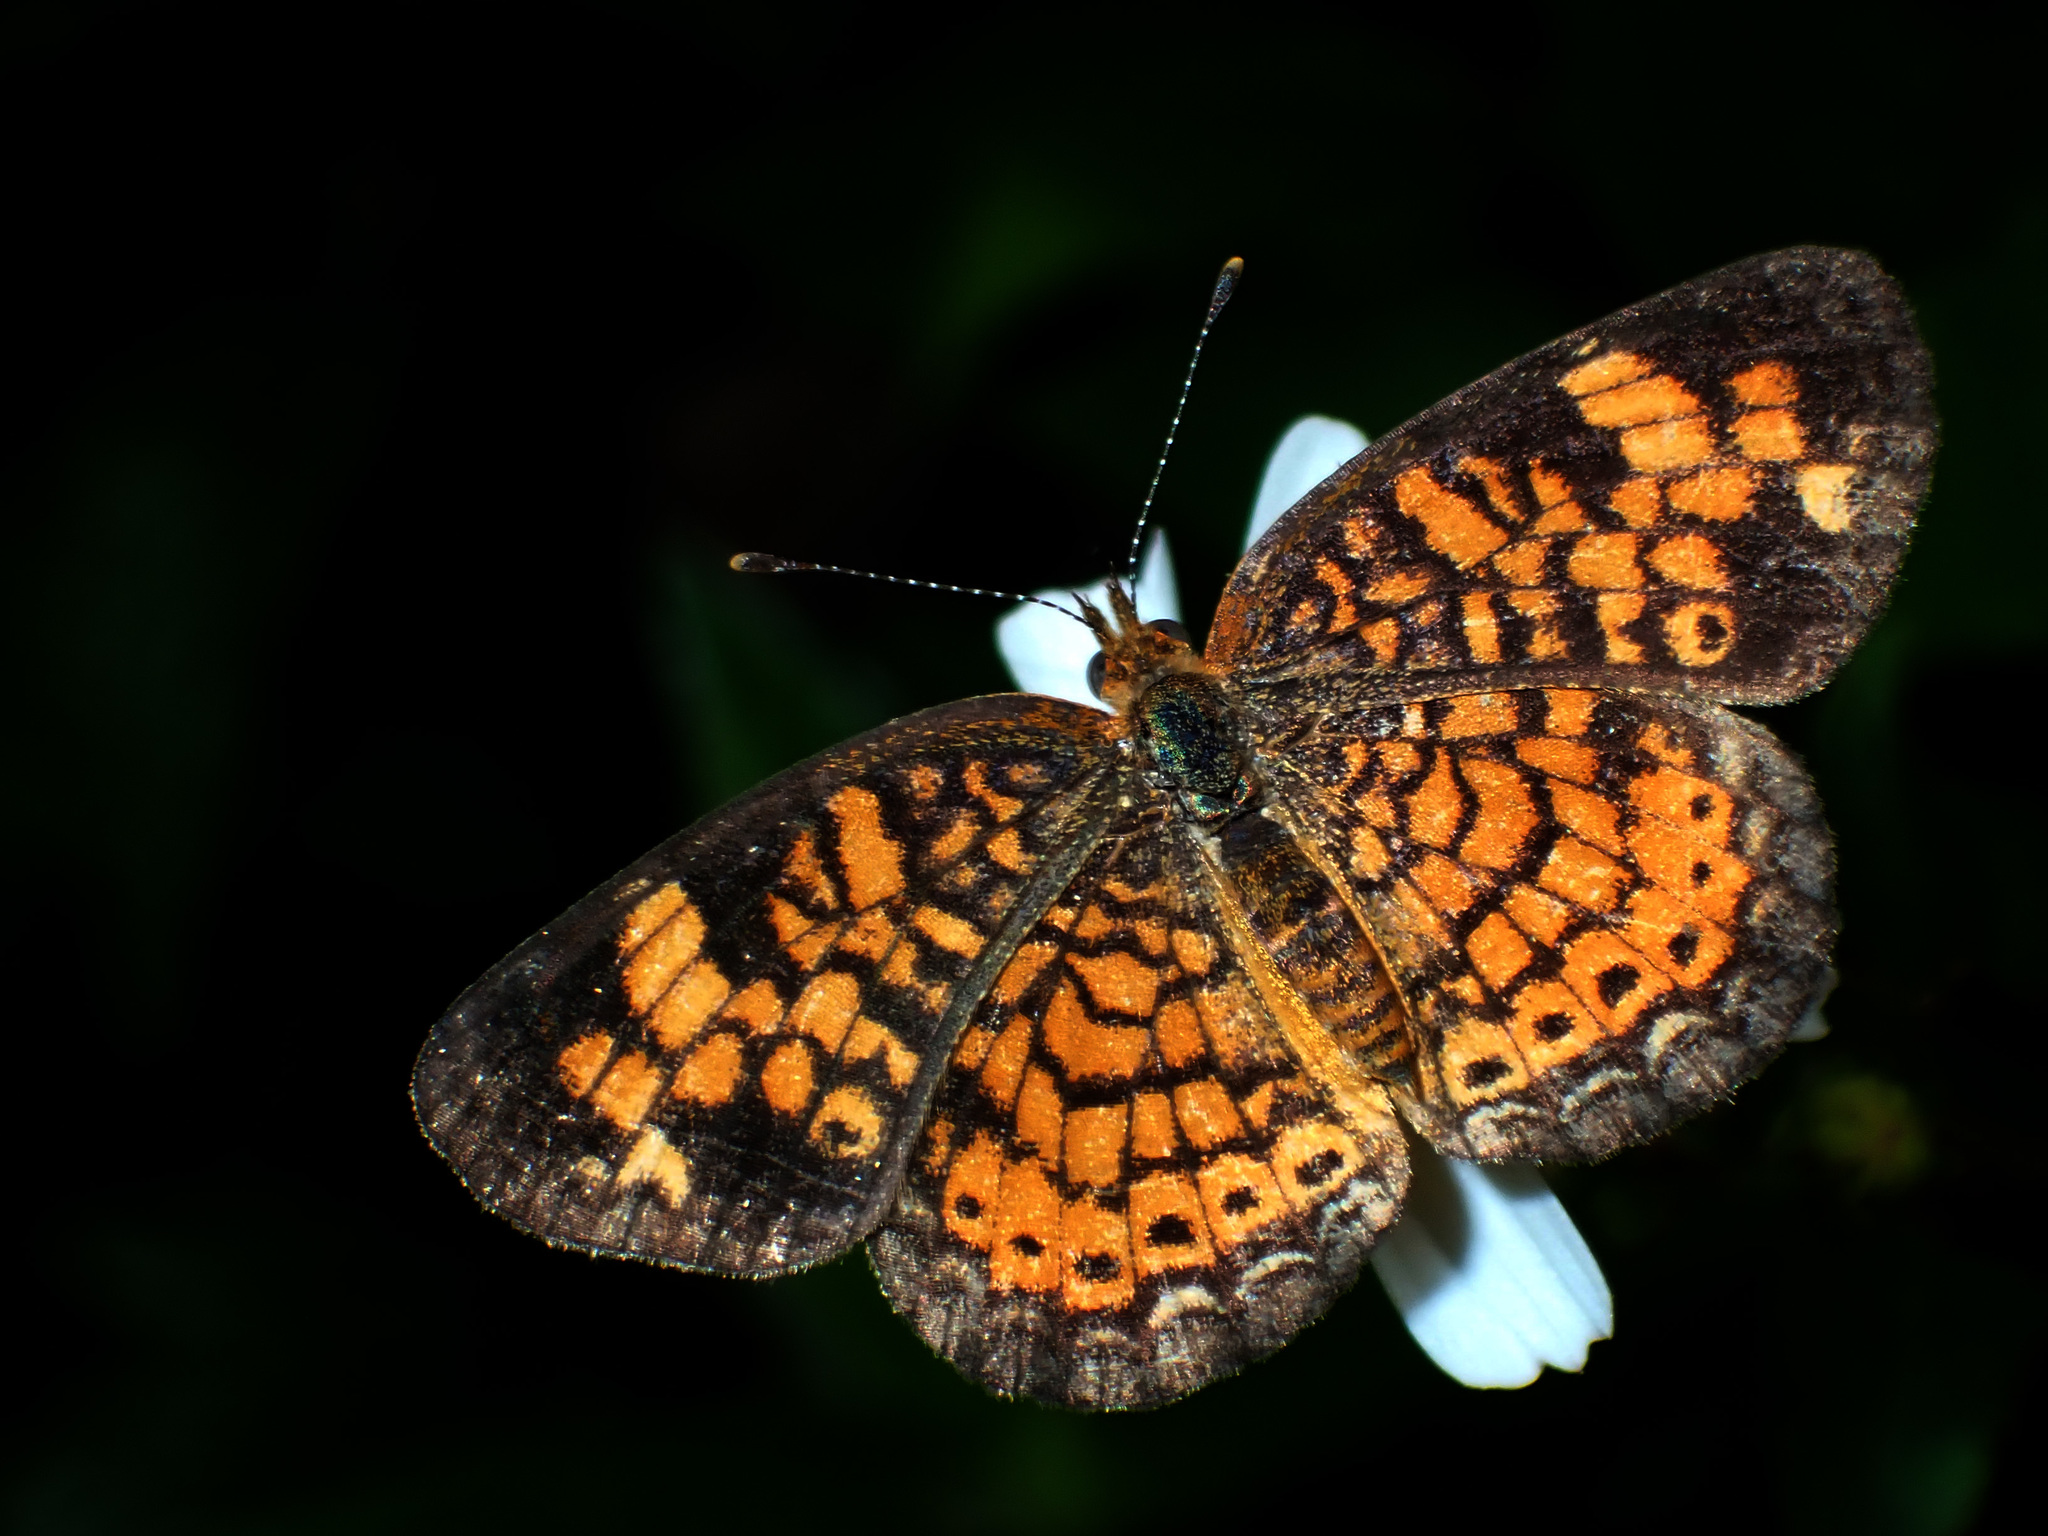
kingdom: Animalia
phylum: Arthropoda
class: Insecta
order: Lepidoptera
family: Nymphalidae
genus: Phyciodes
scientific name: Phyciodes tharos
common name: Pearl crescent
